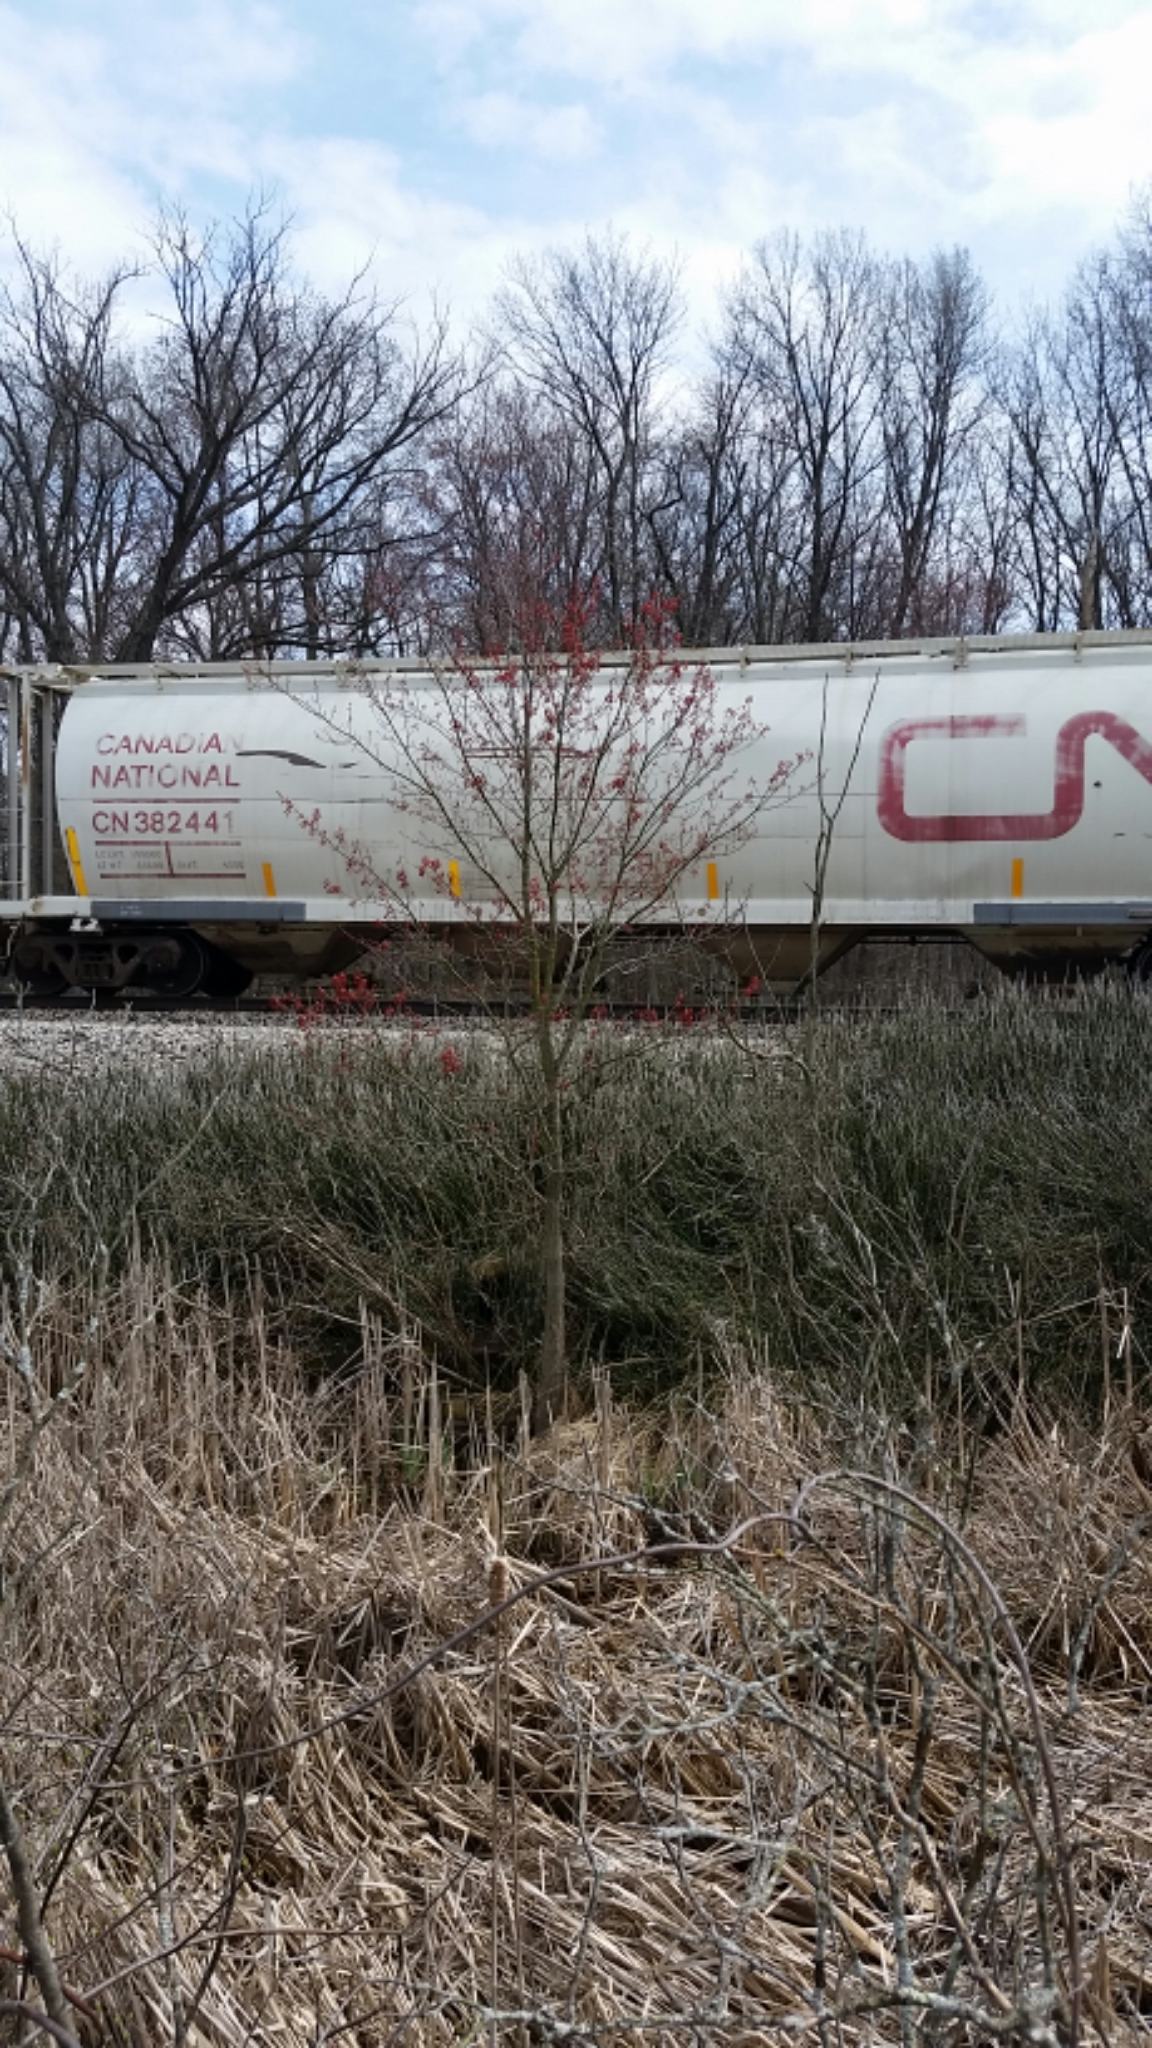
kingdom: Plantae
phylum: Tracheophyta
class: Magnoliopsida
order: Sapindales
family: Sapindaceae
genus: Acer
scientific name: Acer rubrum
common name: Red maple
